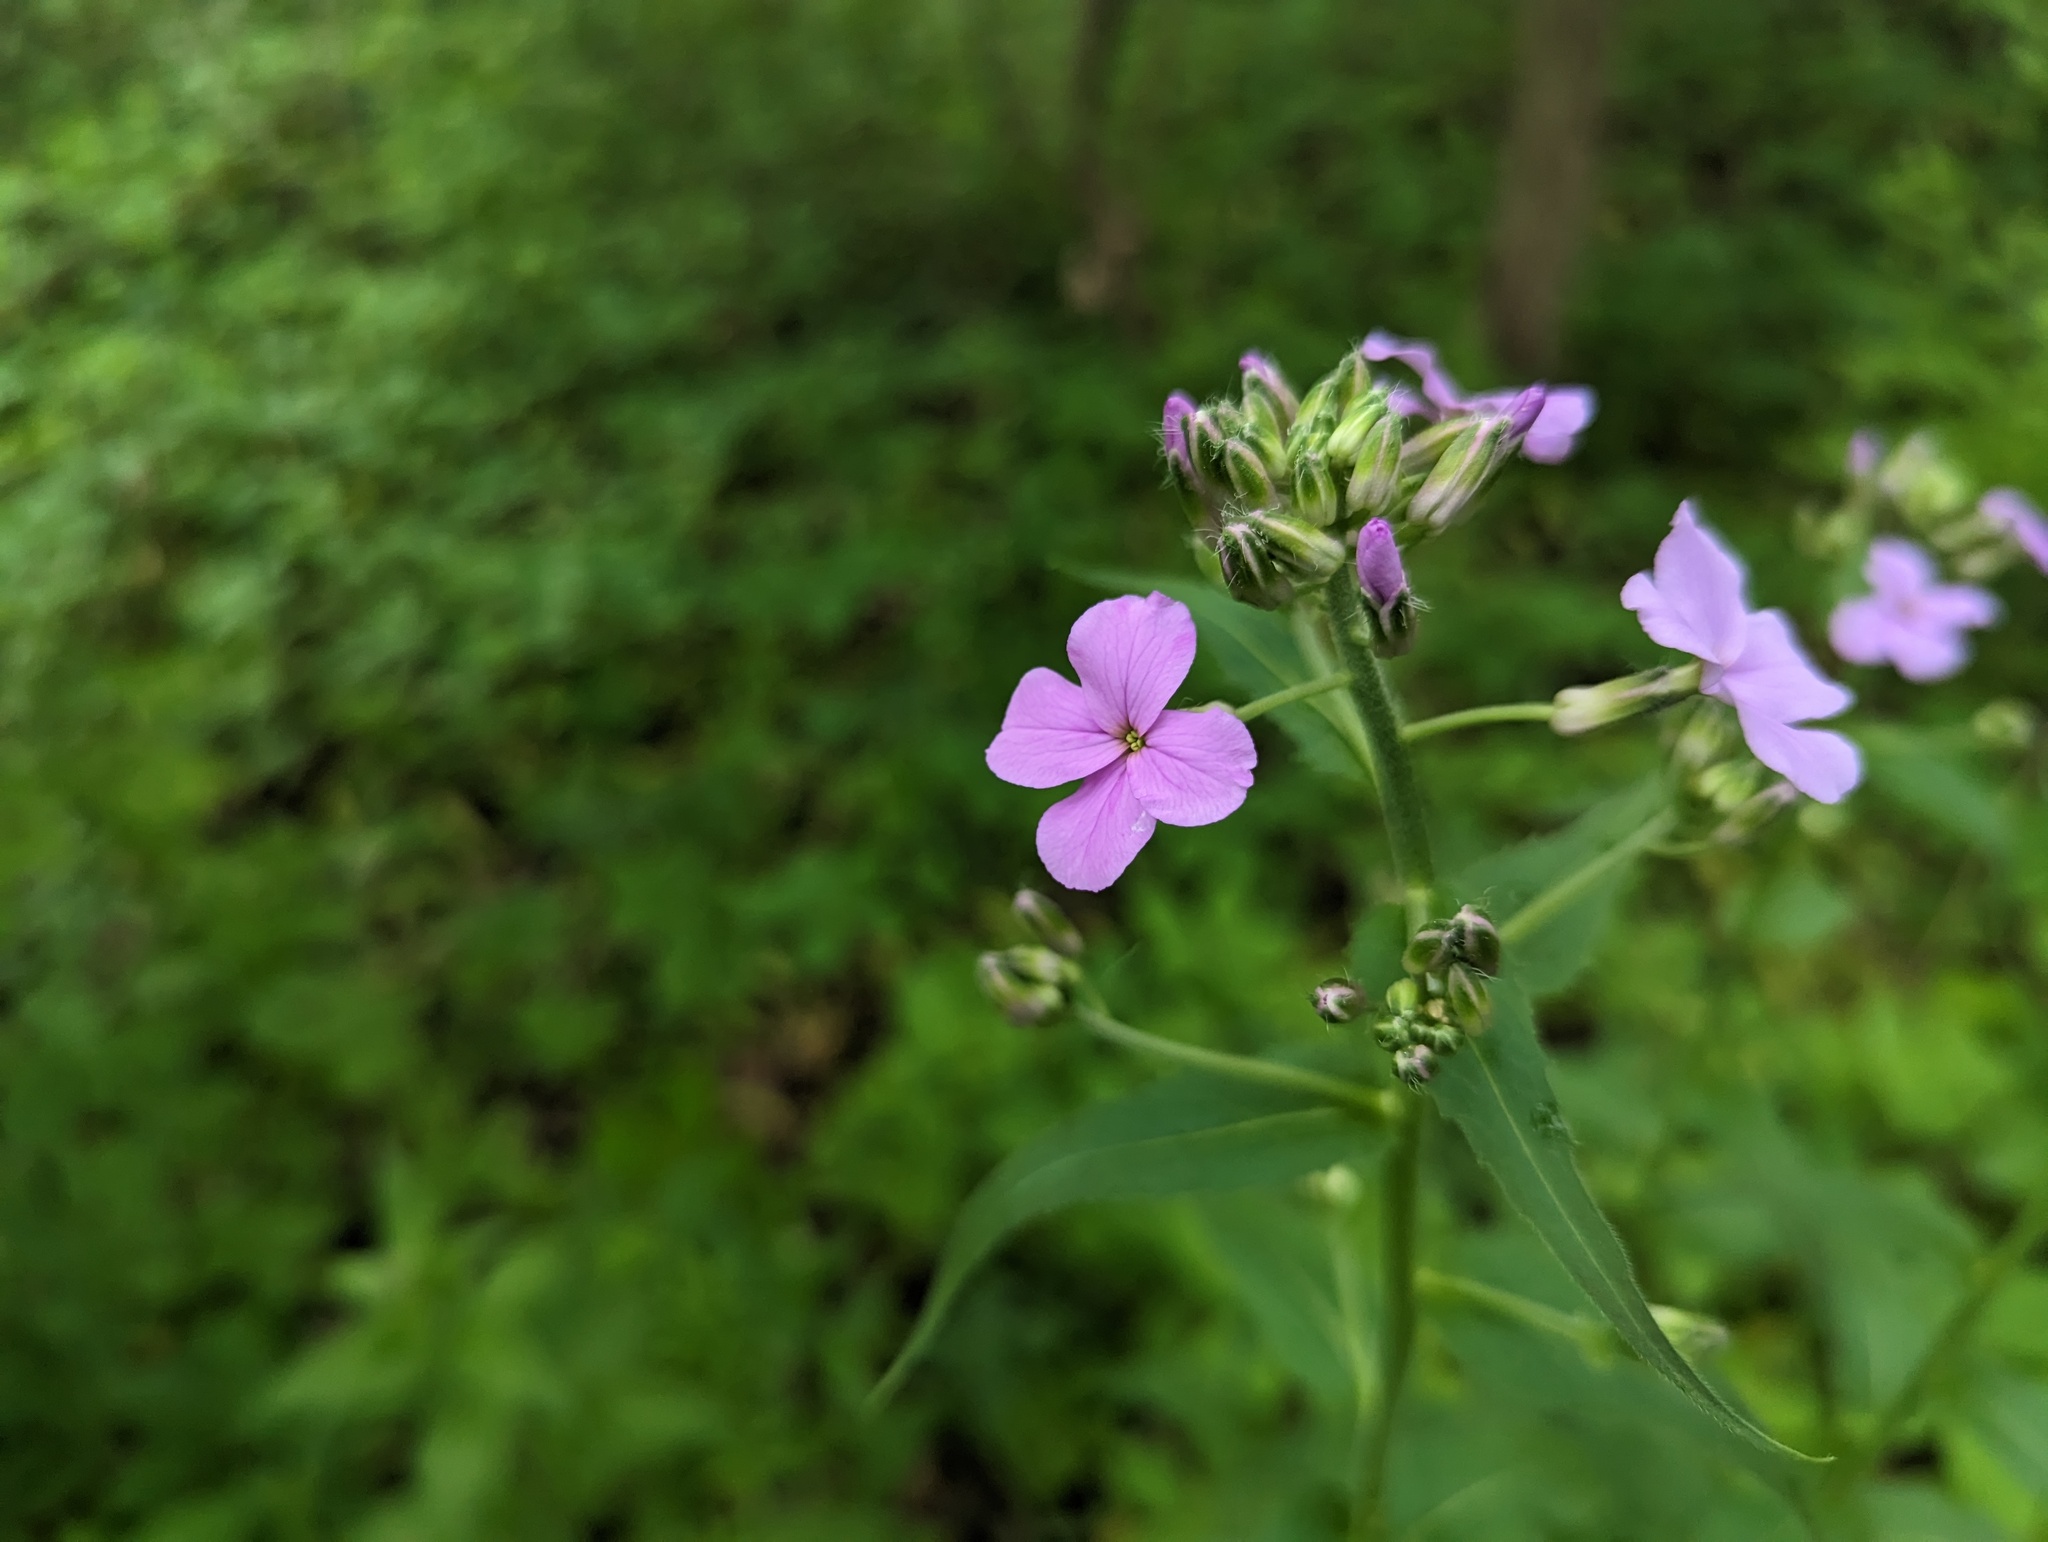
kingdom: Plantae
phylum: Tracheophyta
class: Magnoliopsida
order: Brassicales
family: Brassicaceae
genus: Hesperis
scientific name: Hesperis matronalis
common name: Dame's-violet
